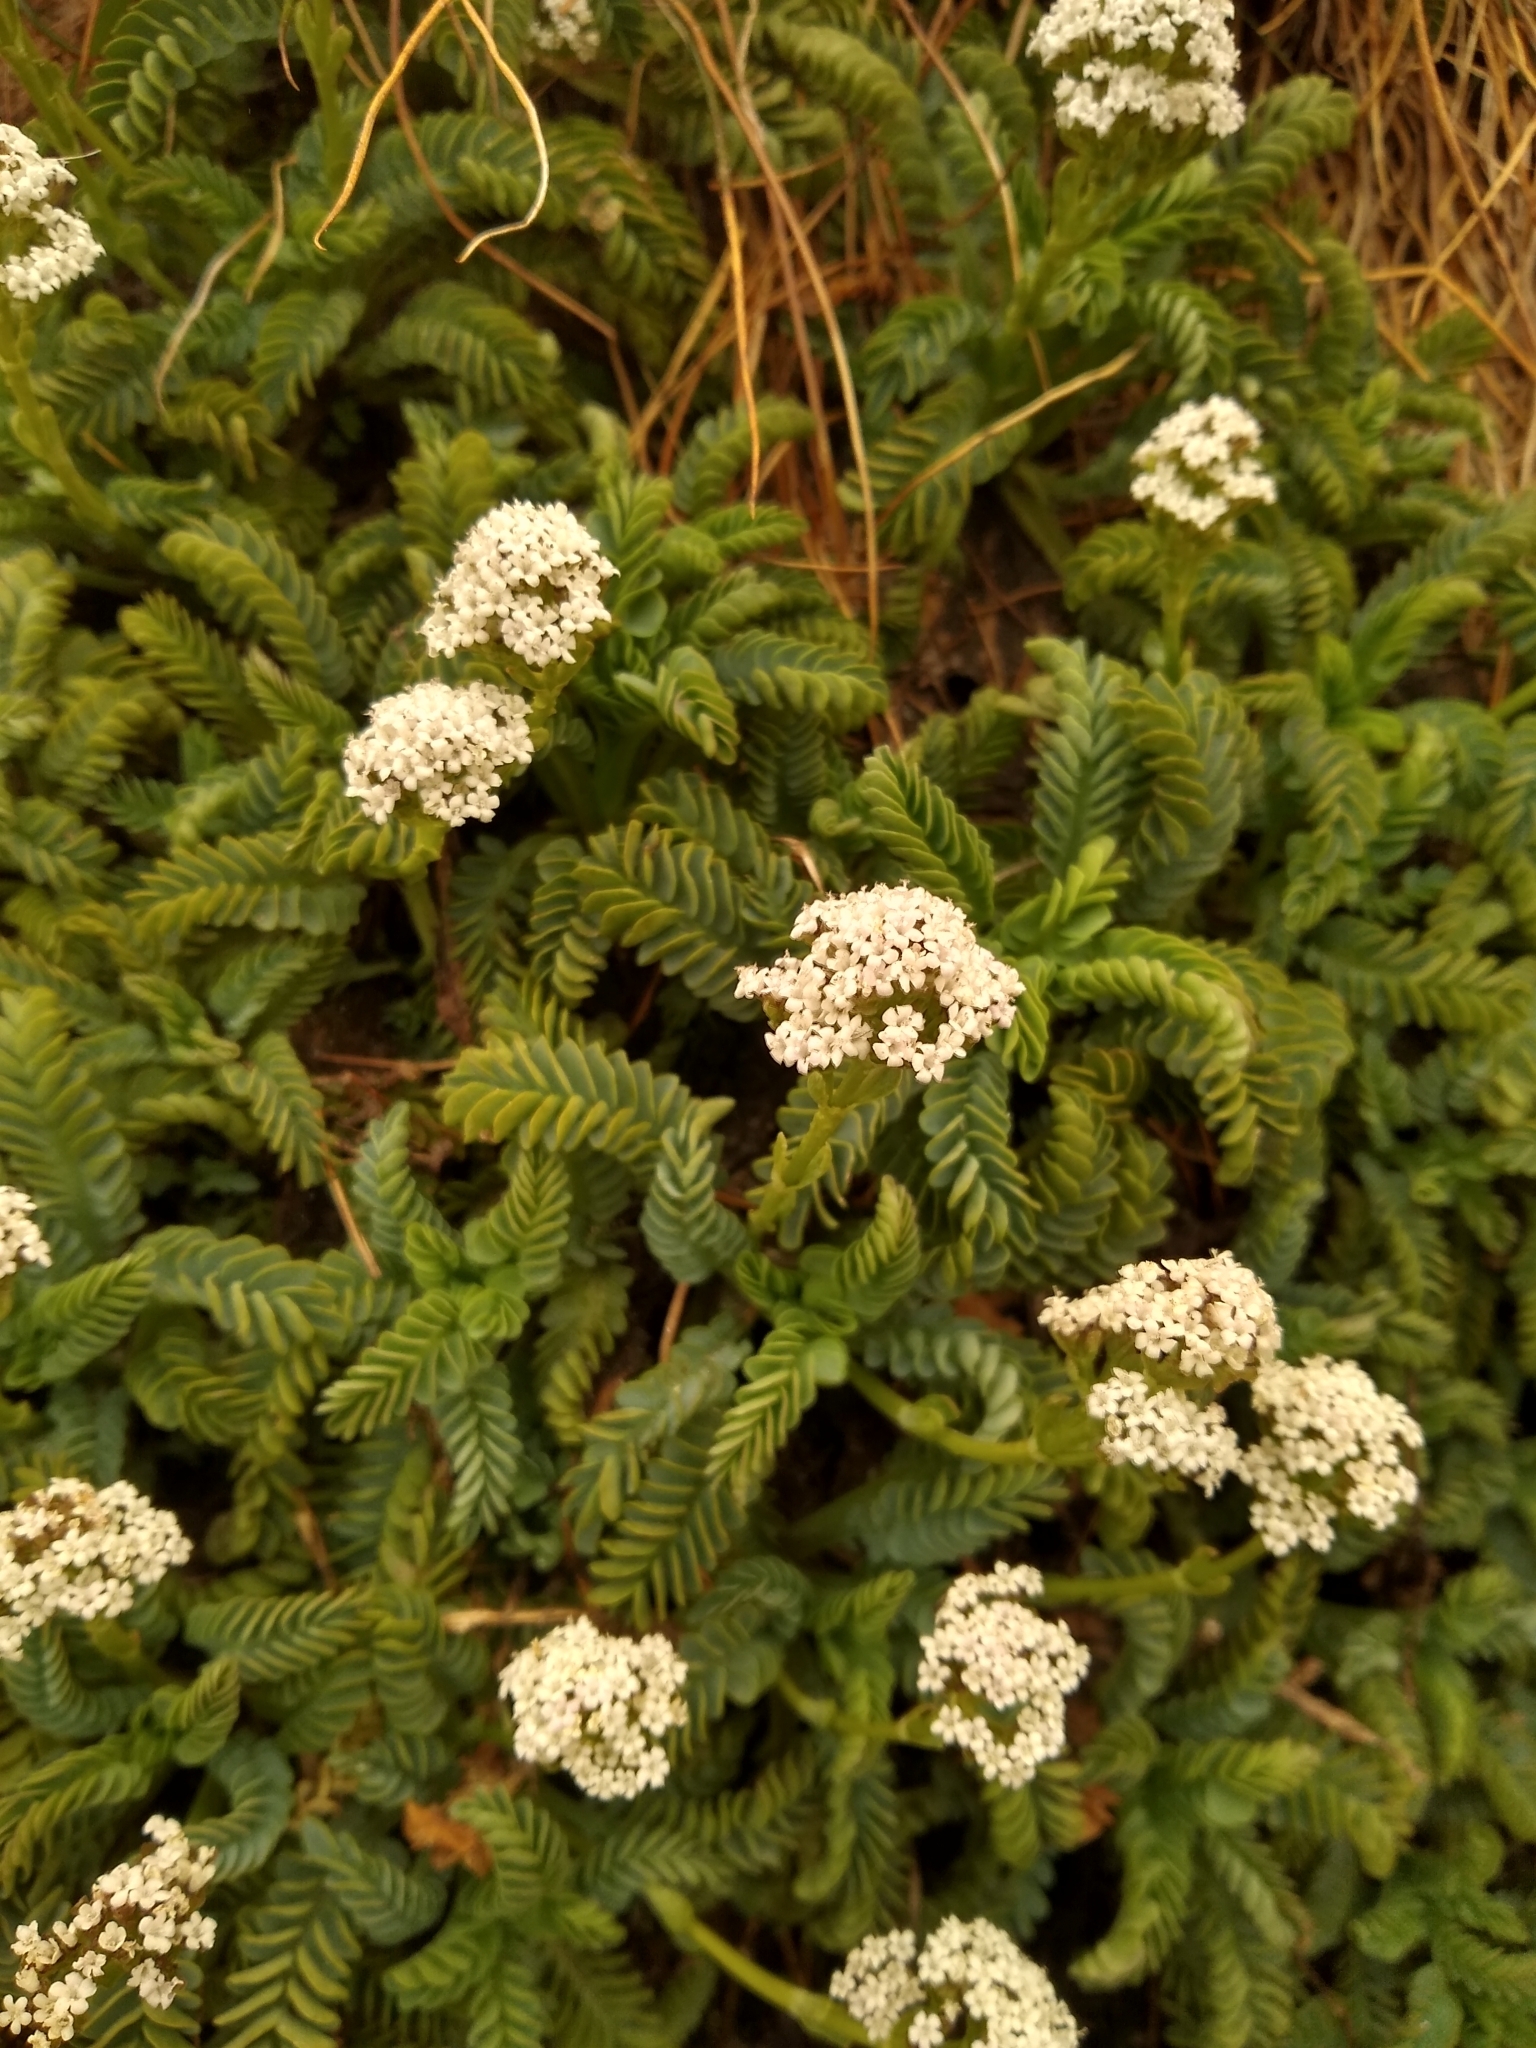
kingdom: Plantae
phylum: Tracheophyta
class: Magnoliopsida
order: Dipsacales
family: Caprifoliaceae
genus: Valeriana
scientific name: Valeriana philippiana
